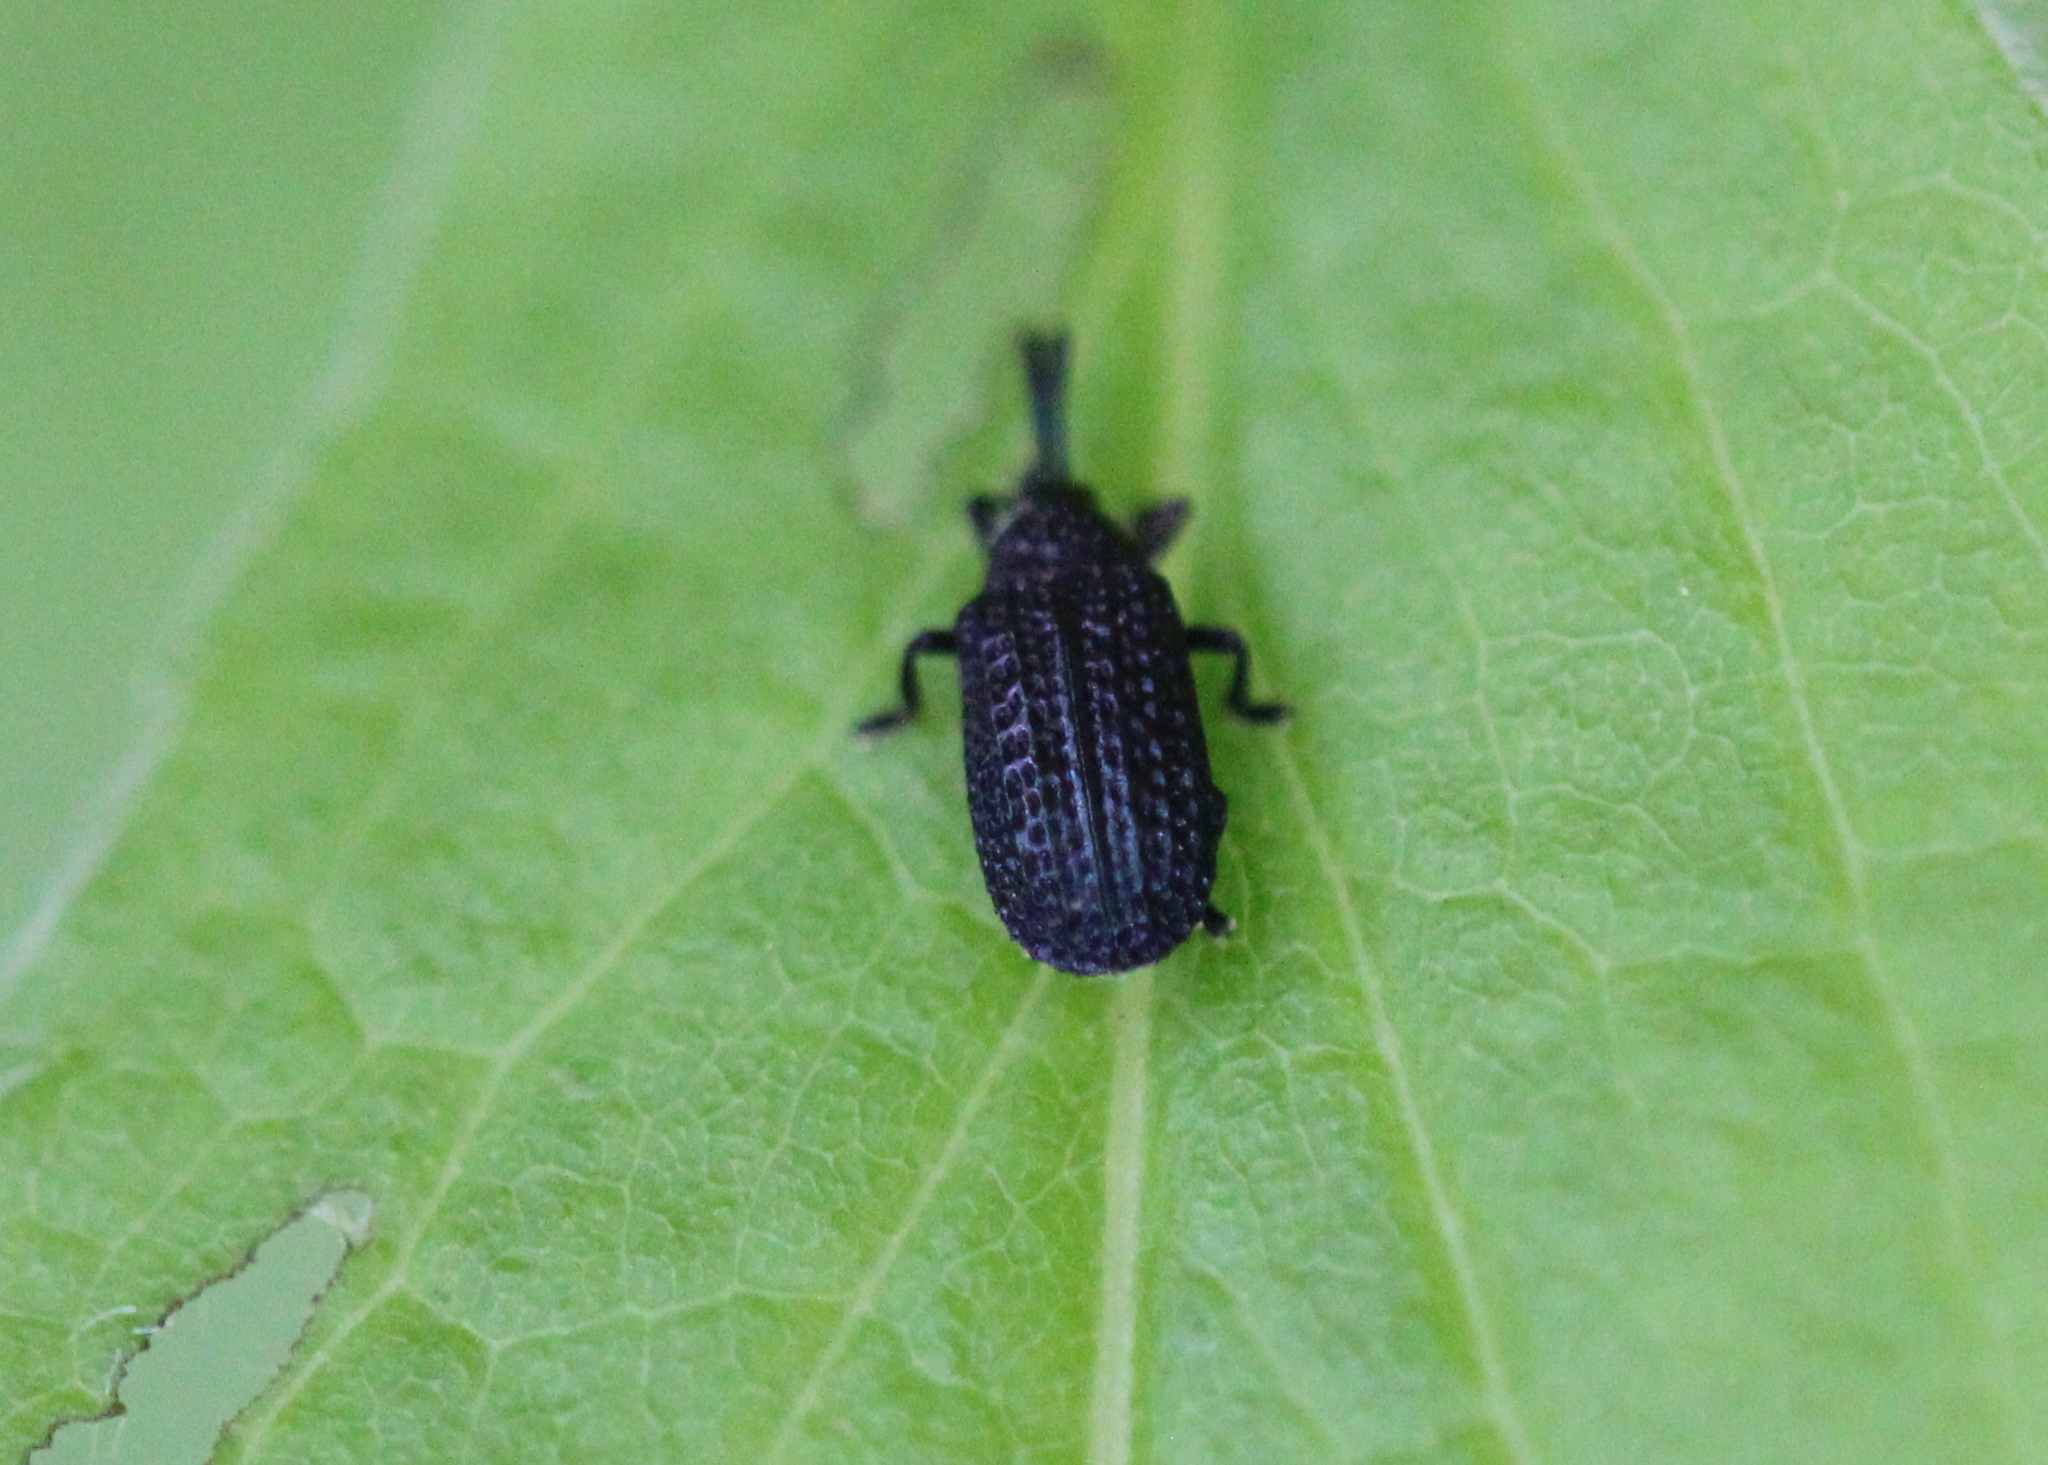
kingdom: Animalia
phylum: Arthropoda
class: Insecta
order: Coleoptera
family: Chrysomelidae
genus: Microrhopala
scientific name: Microrhopala excavata
